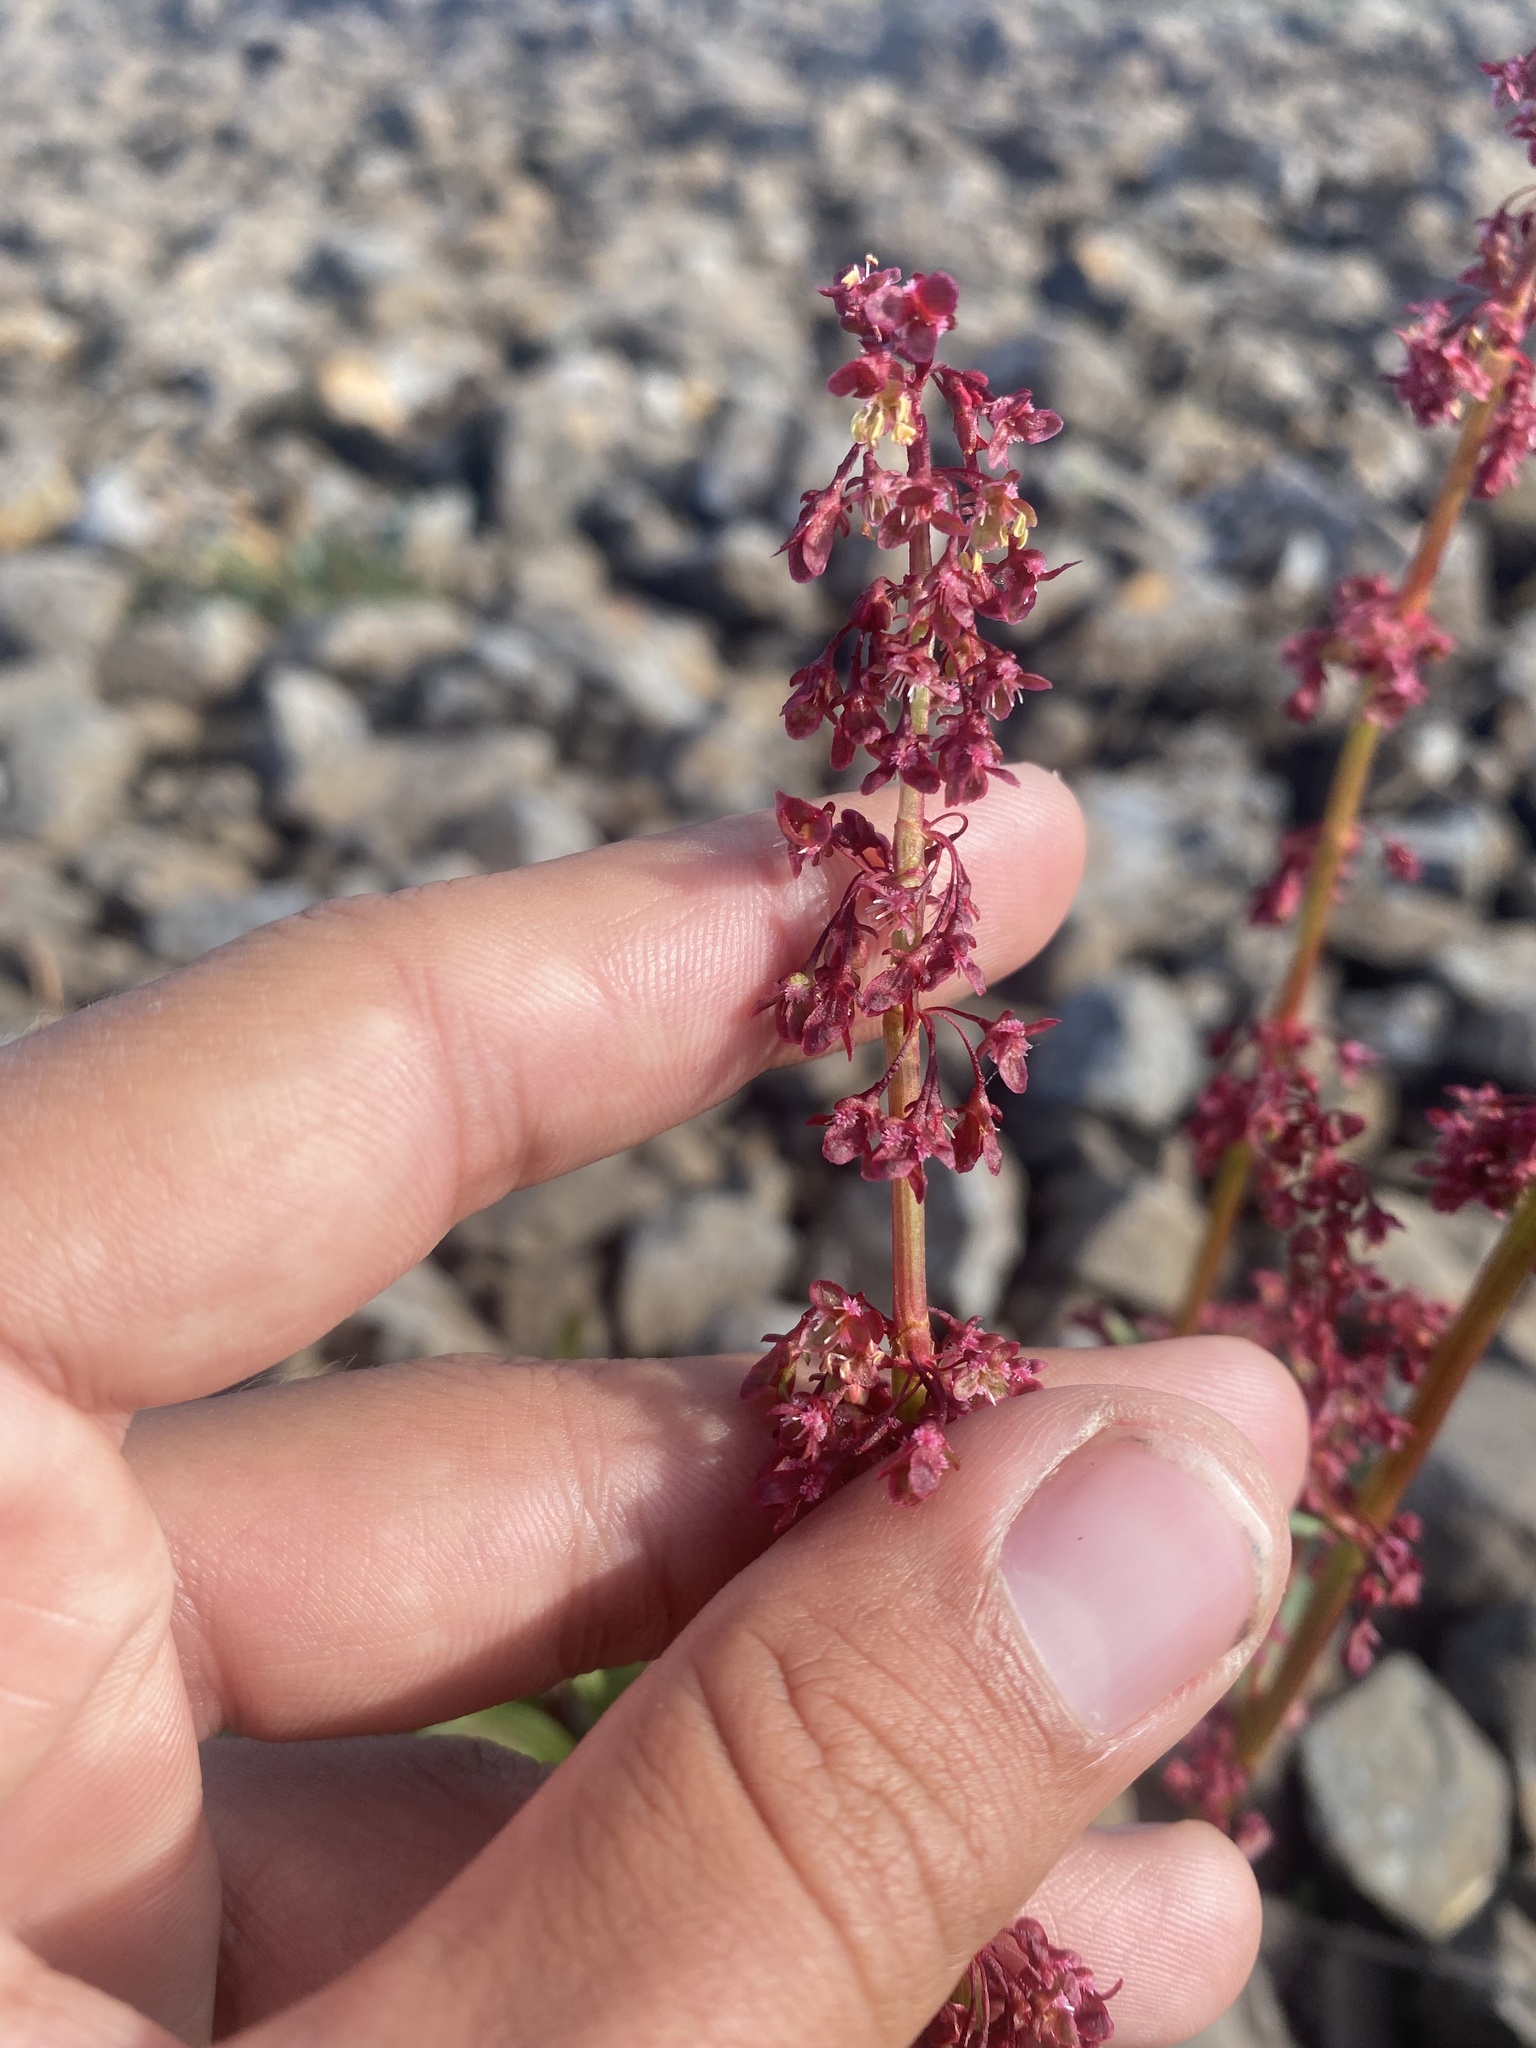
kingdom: Plantae
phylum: Tracheophyta
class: Magnoliopsida
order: Caryophyllales
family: Polygonaceae
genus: Rumex
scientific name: Rumex arcticus
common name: Arctic dock
